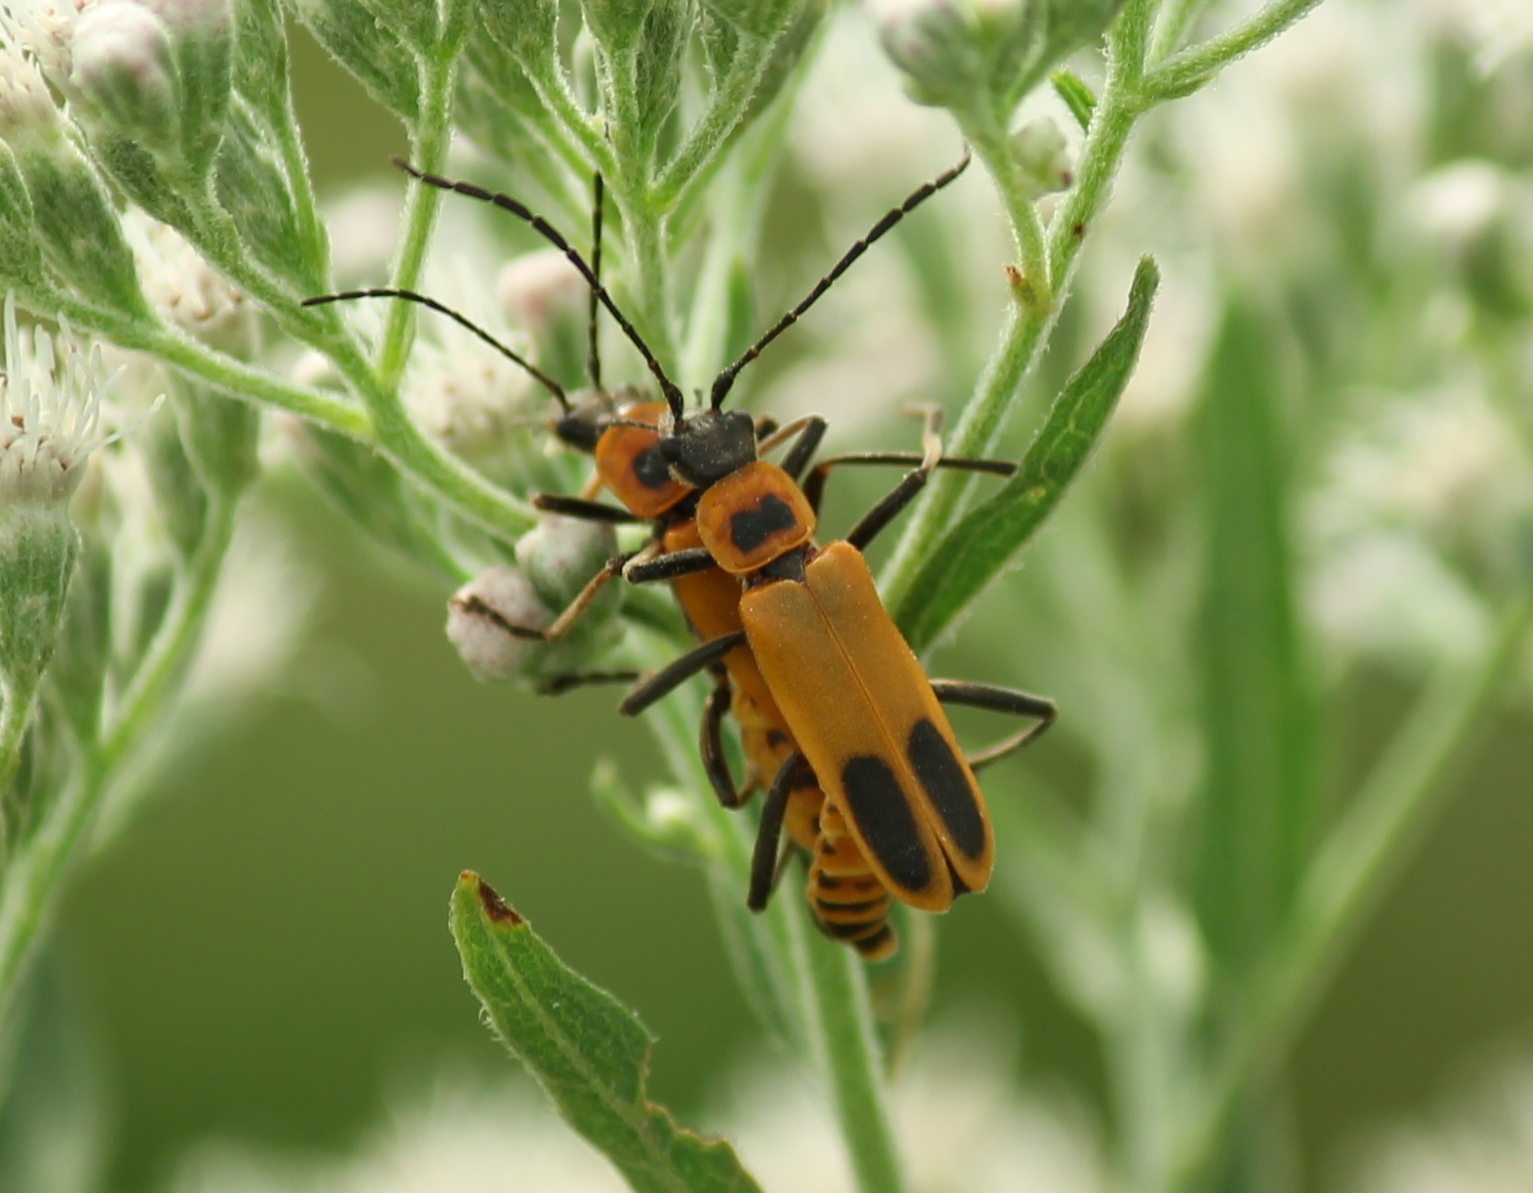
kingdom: Animalia
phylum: Arthropoda
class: Insecta
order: Coleoptera
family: Cantharidae
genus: Chauliognathus
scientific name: Chauliognathus pensylvanicus
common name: Goldenrod soldier beetle
